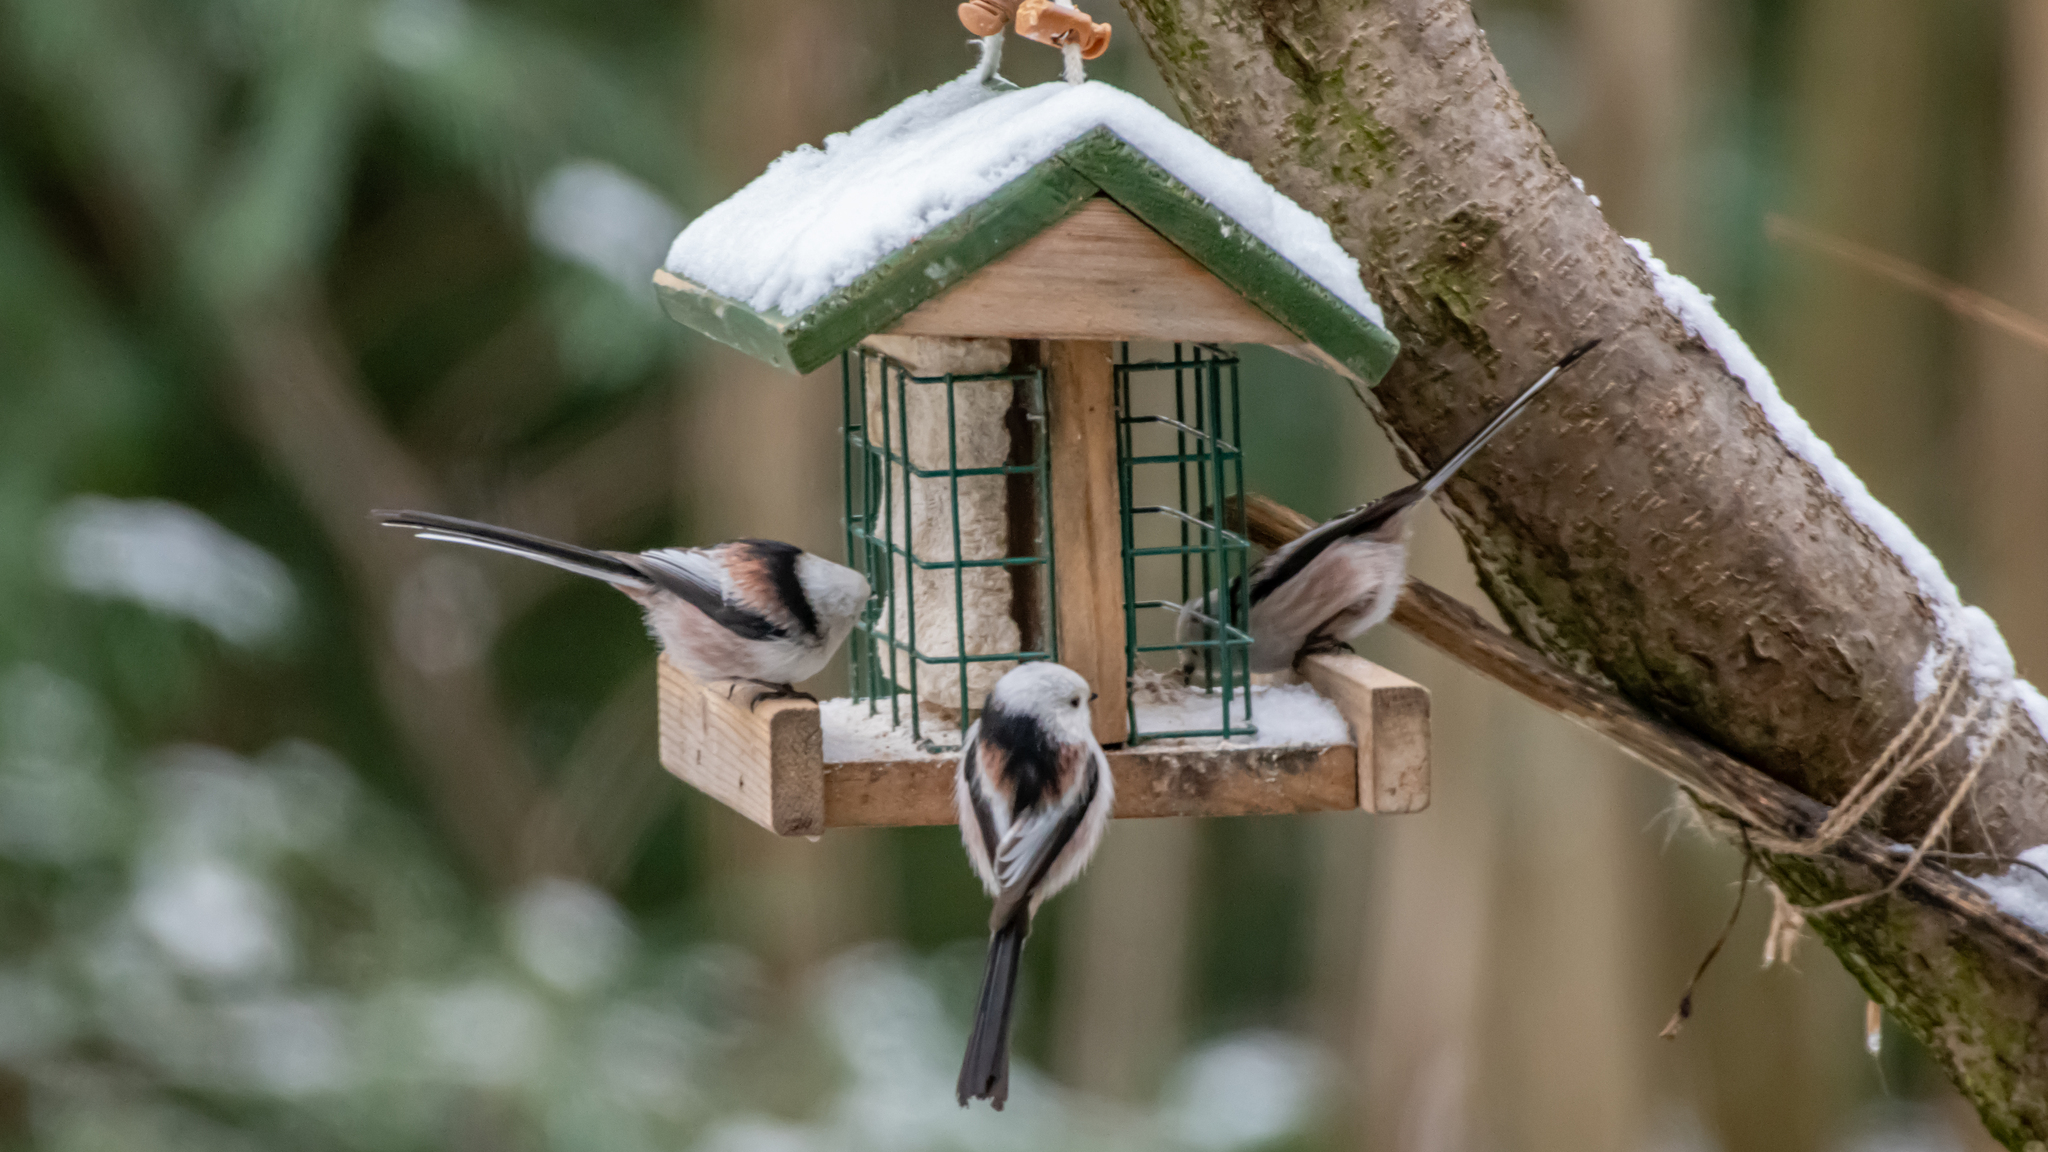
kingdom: Animalia
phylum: Chordata
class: Aves
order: Passeriformes
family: Aegithalidae
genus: Aegithalos
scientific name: Aegithalos caudatus
